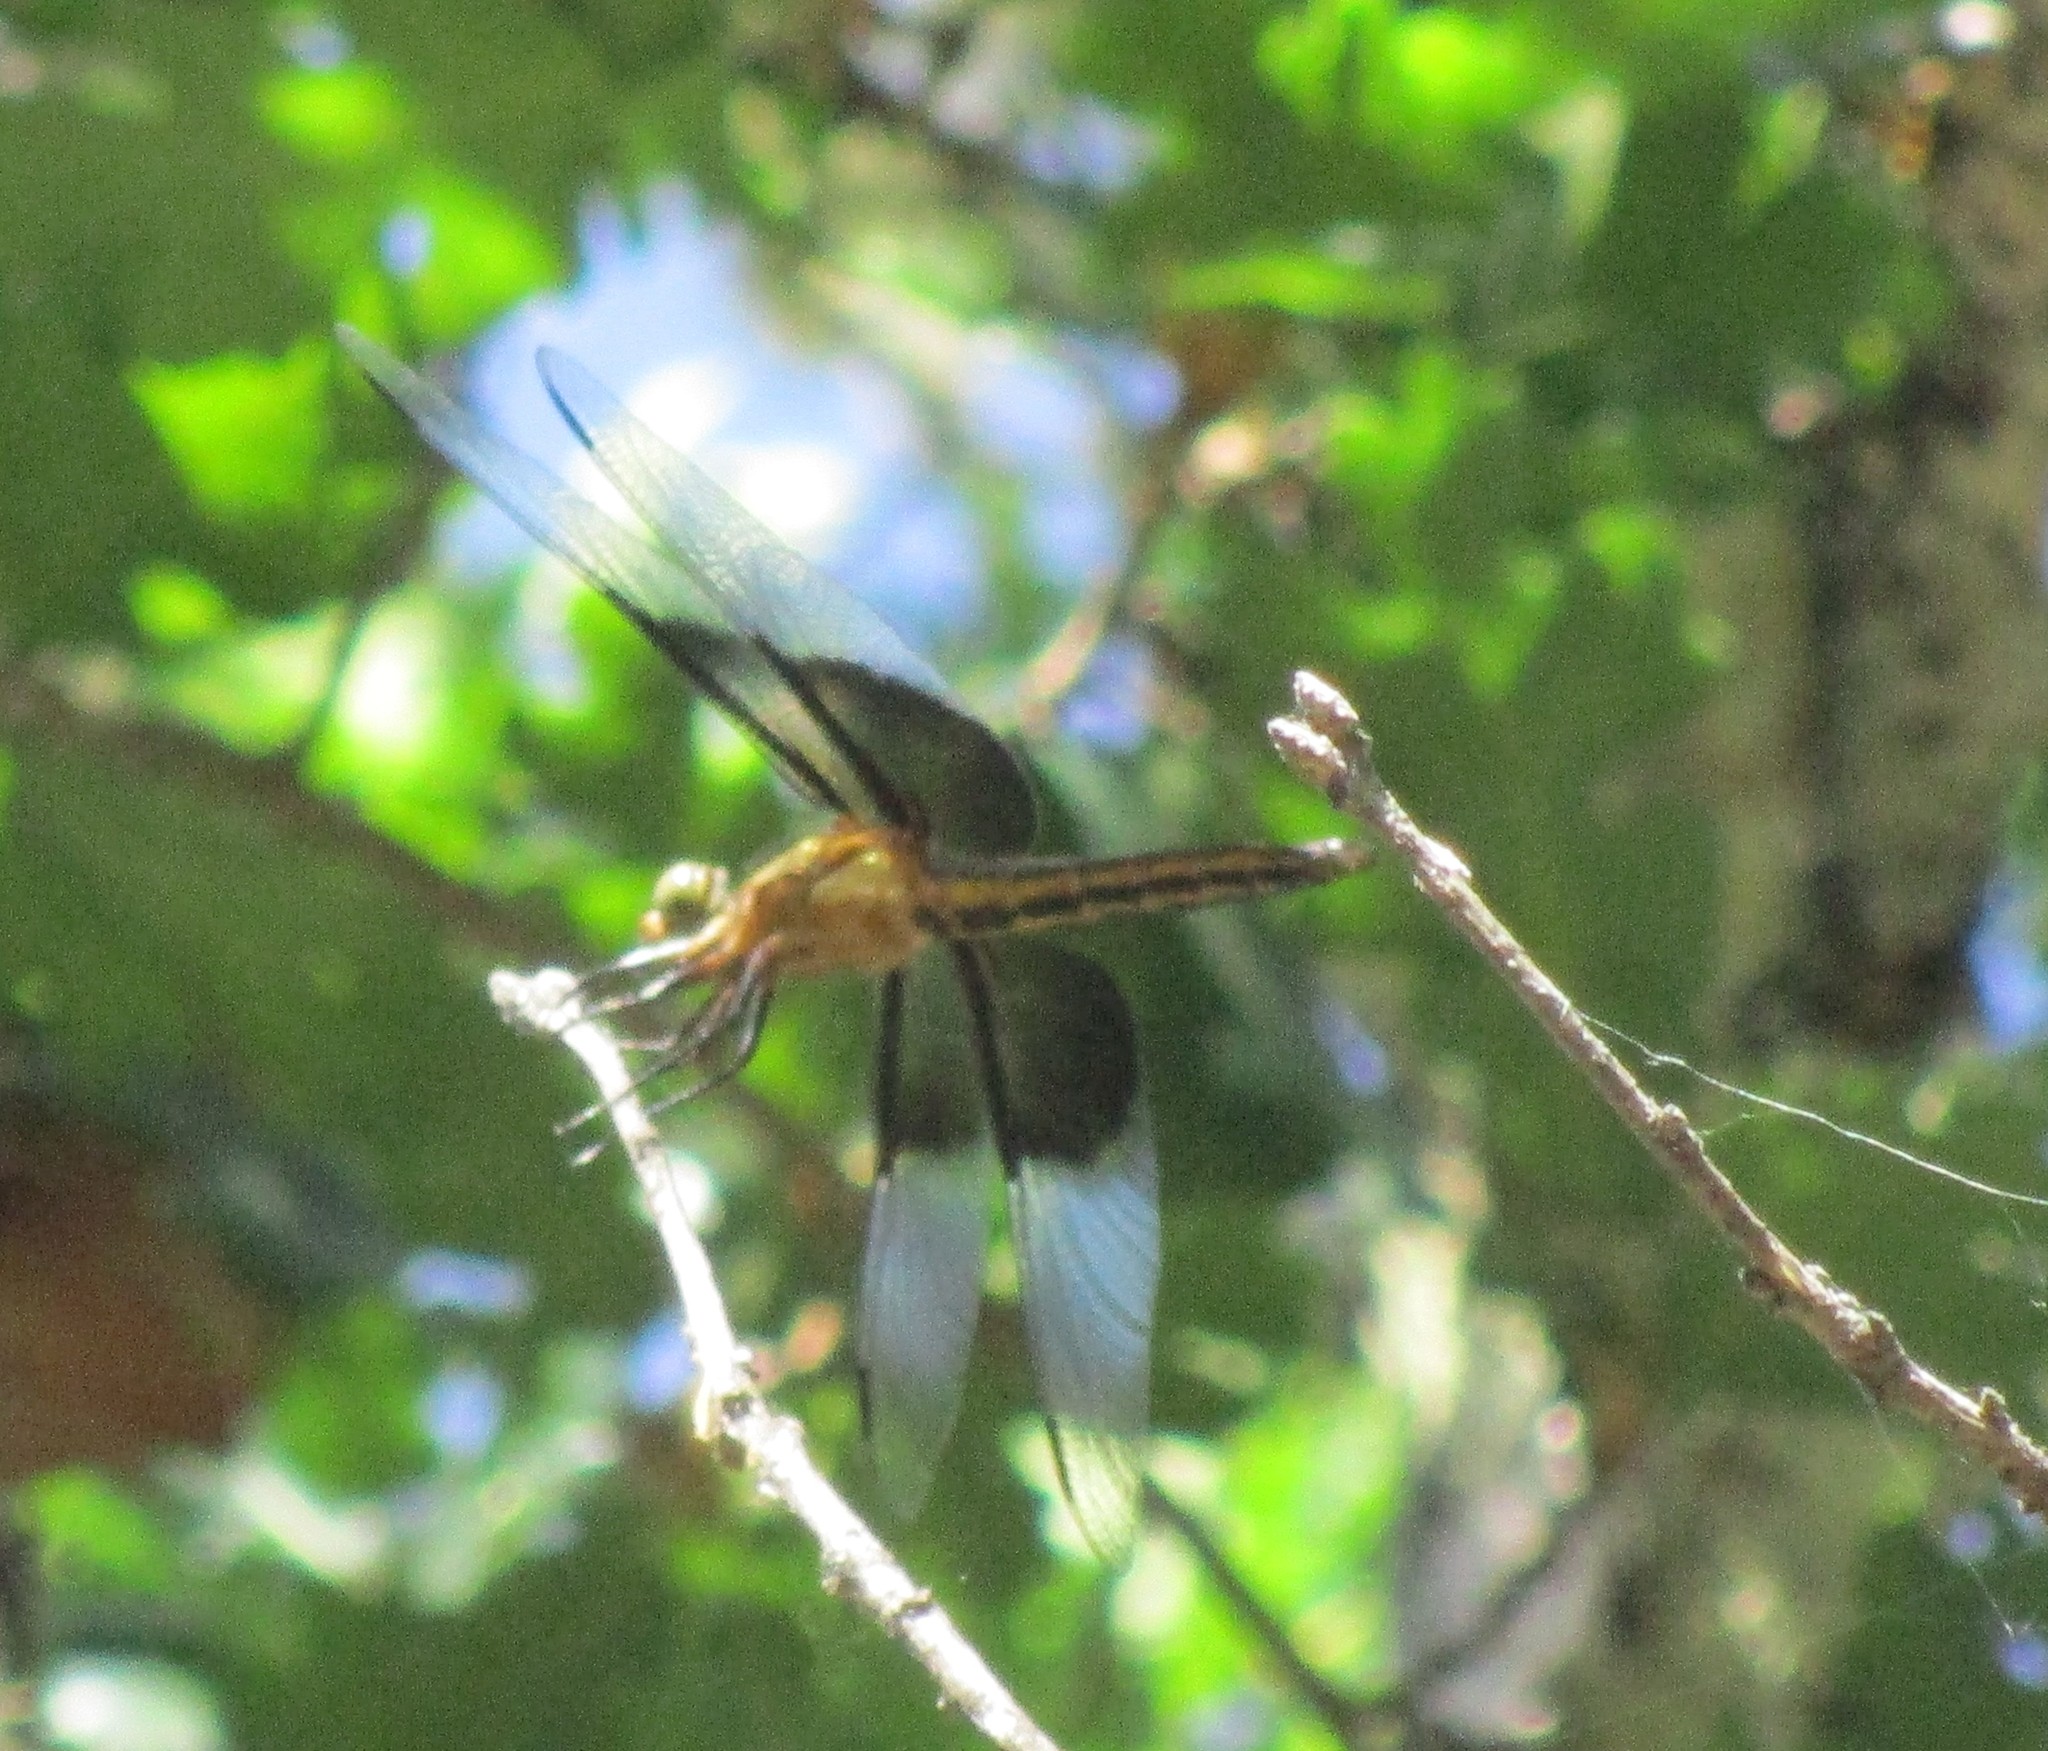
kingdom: Animalia
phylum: Arthropoda
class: Insecta
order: Odonata
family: Libellulidae
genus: Libellula
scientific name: Libellula luctuosa
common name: Widow skimmer
